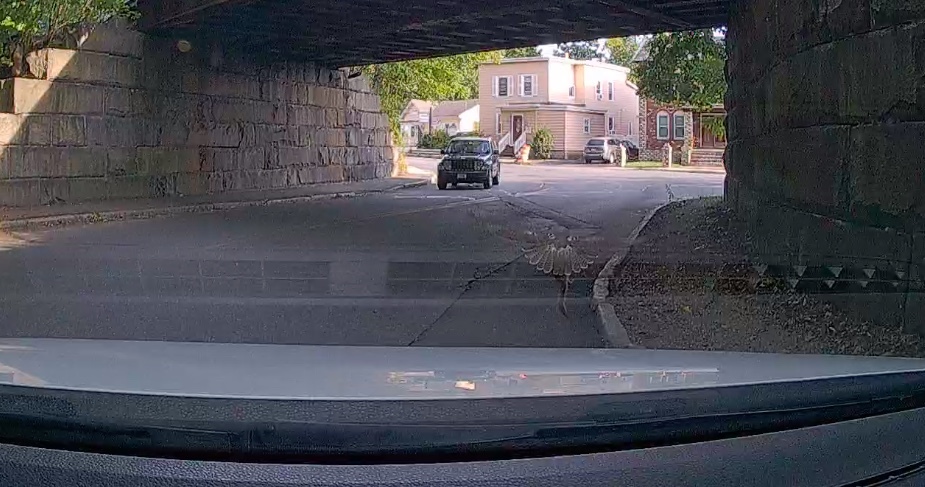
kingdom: Animalia
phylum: Chordata
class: Aves
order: Accipitriformes
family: Accipitridae
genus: Buteo
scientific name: Buteo jamaicensis
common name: Red-tailed hawk
